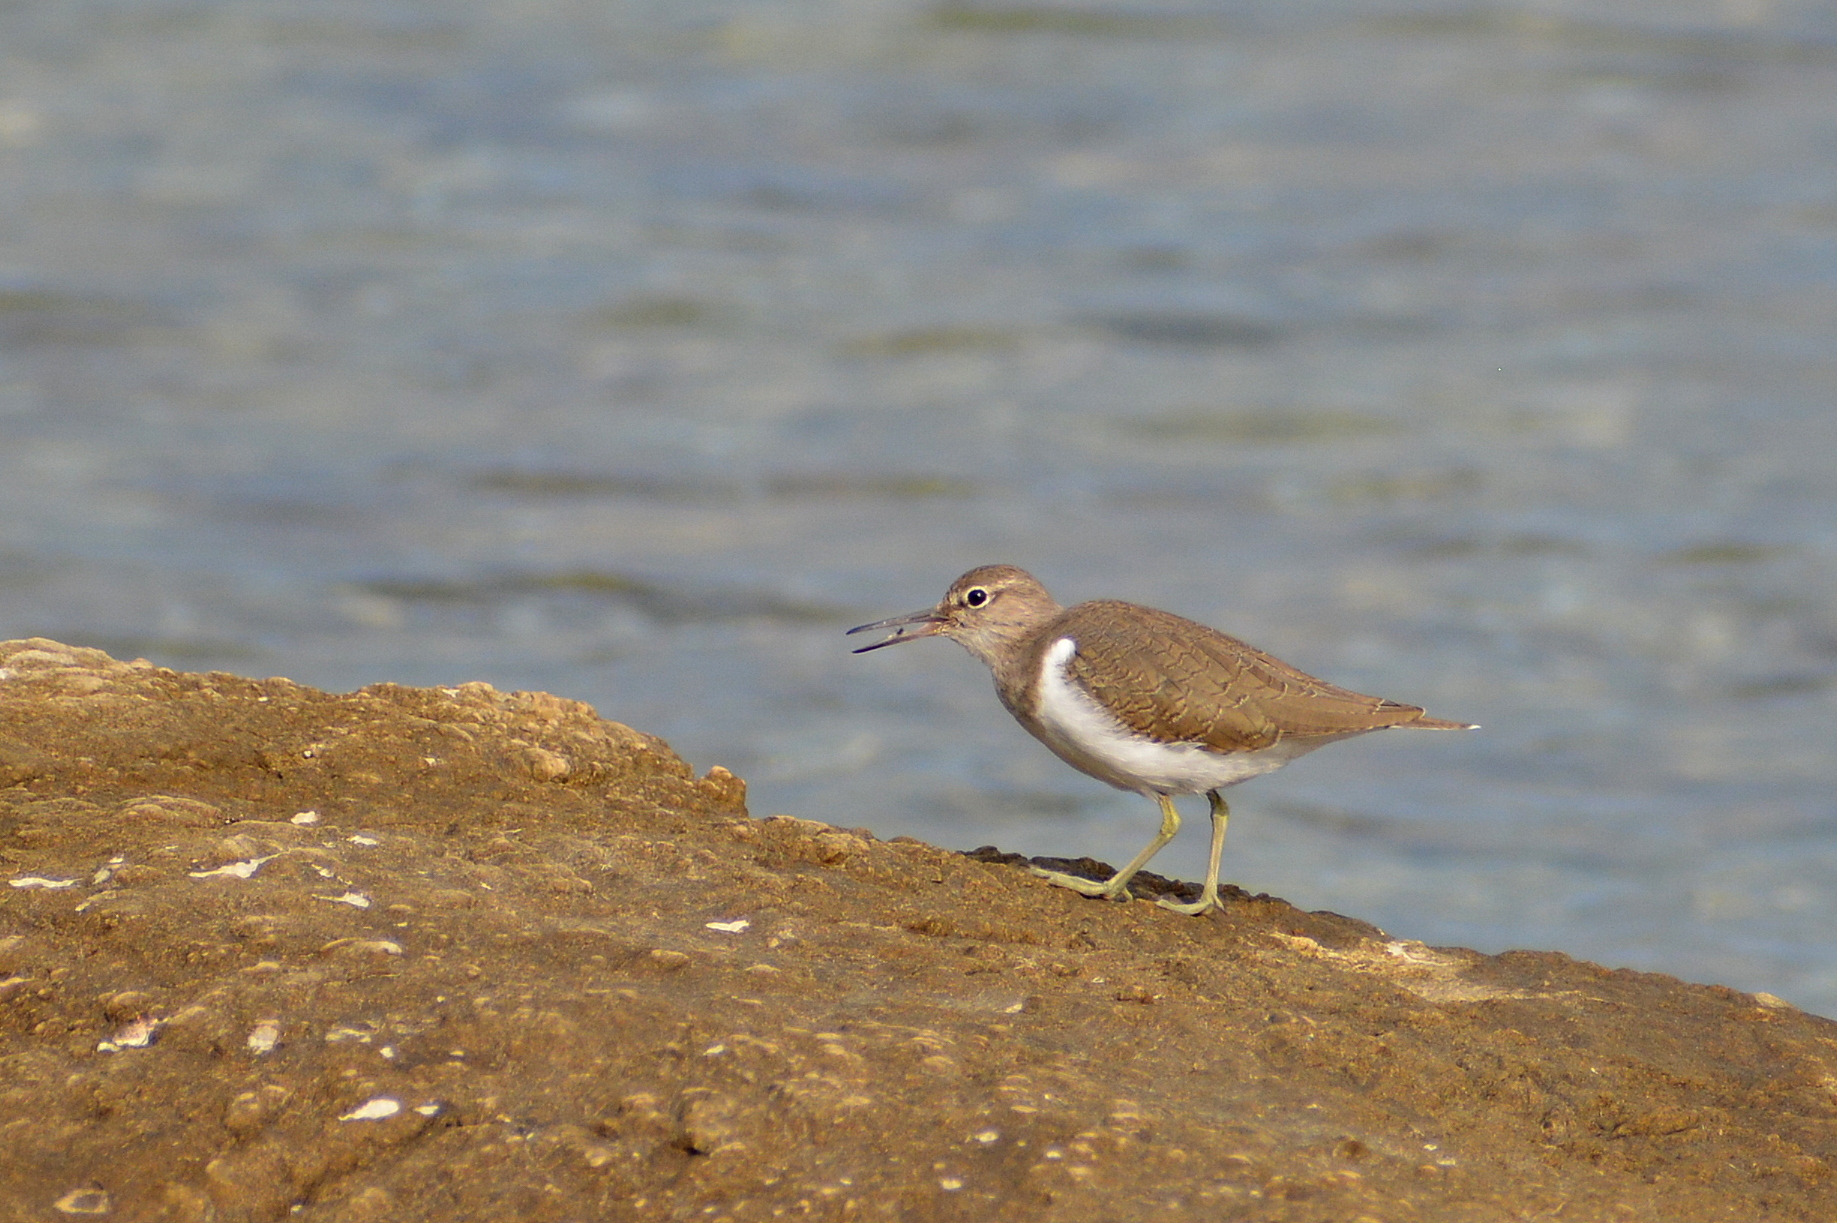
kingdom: Animalia
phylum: Chordata
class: Aves
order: Charadriiformes
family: Scolopacidae
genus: Actitis
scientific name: Actitis hypoleucos
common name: Common sandpiper
